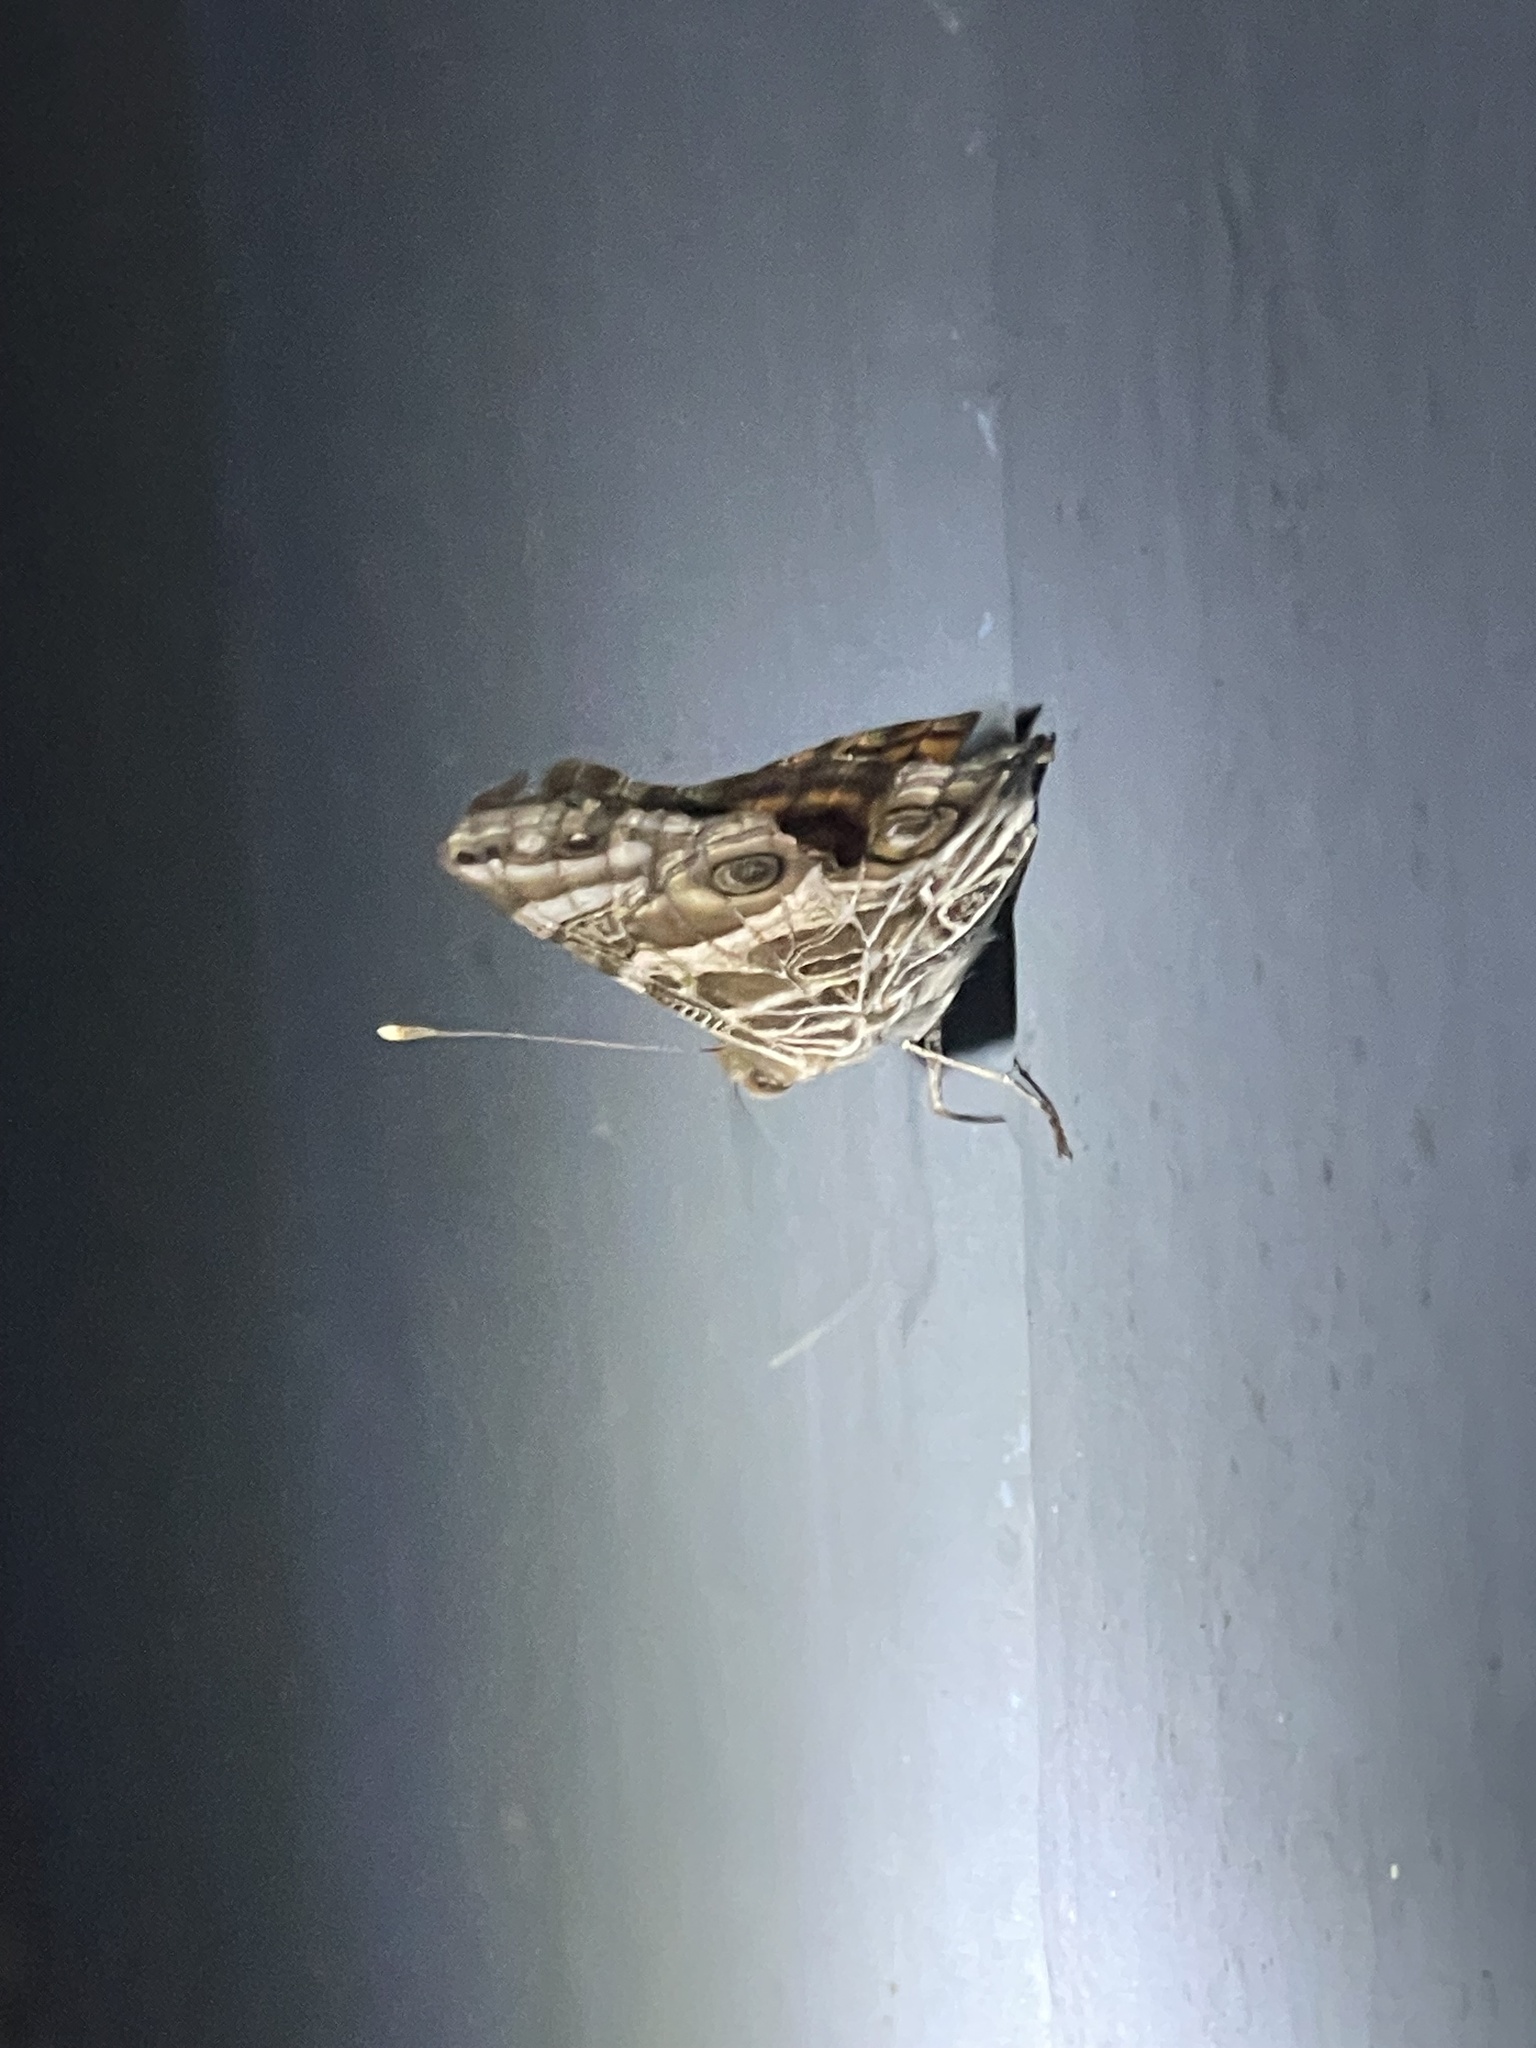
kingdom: Animalia
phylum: Arthropoda
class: Insecta
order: Lepidoptera
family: Nymphalidae
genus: Vanessa
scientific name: Vanessa virginiensis
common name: American lady
